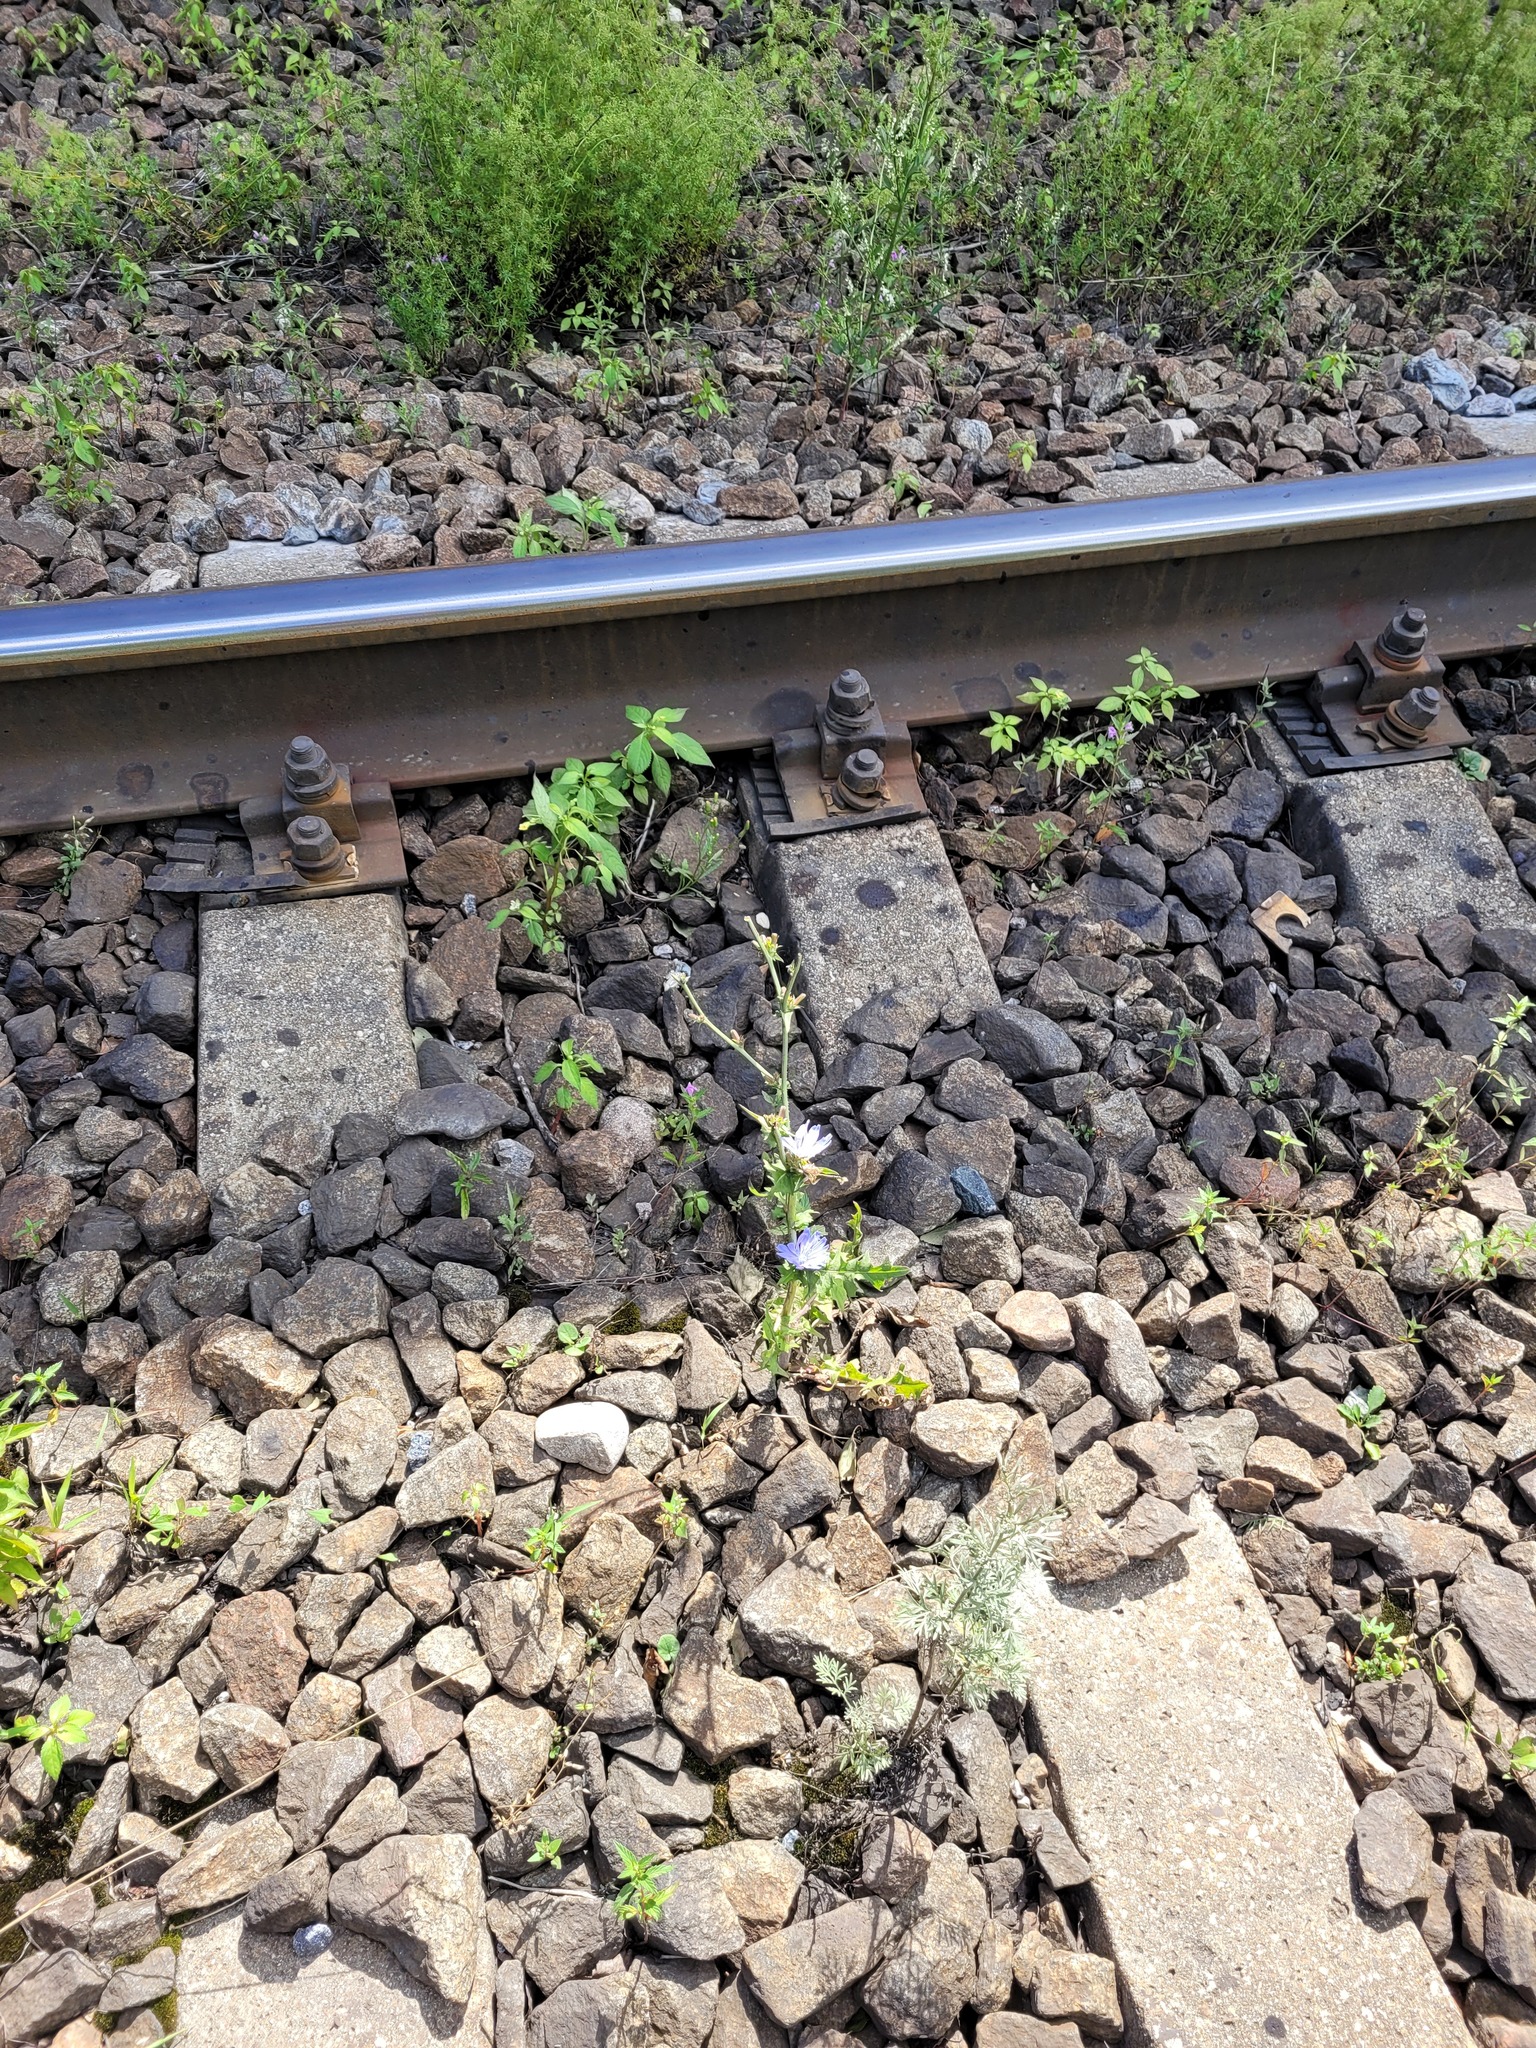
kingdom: Plantae
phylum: Tracheophyta
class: Magnoliopsida
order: Asterales
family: Asteraceae
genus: Cichorium
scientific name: Cichorium intybus
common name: Chicory
